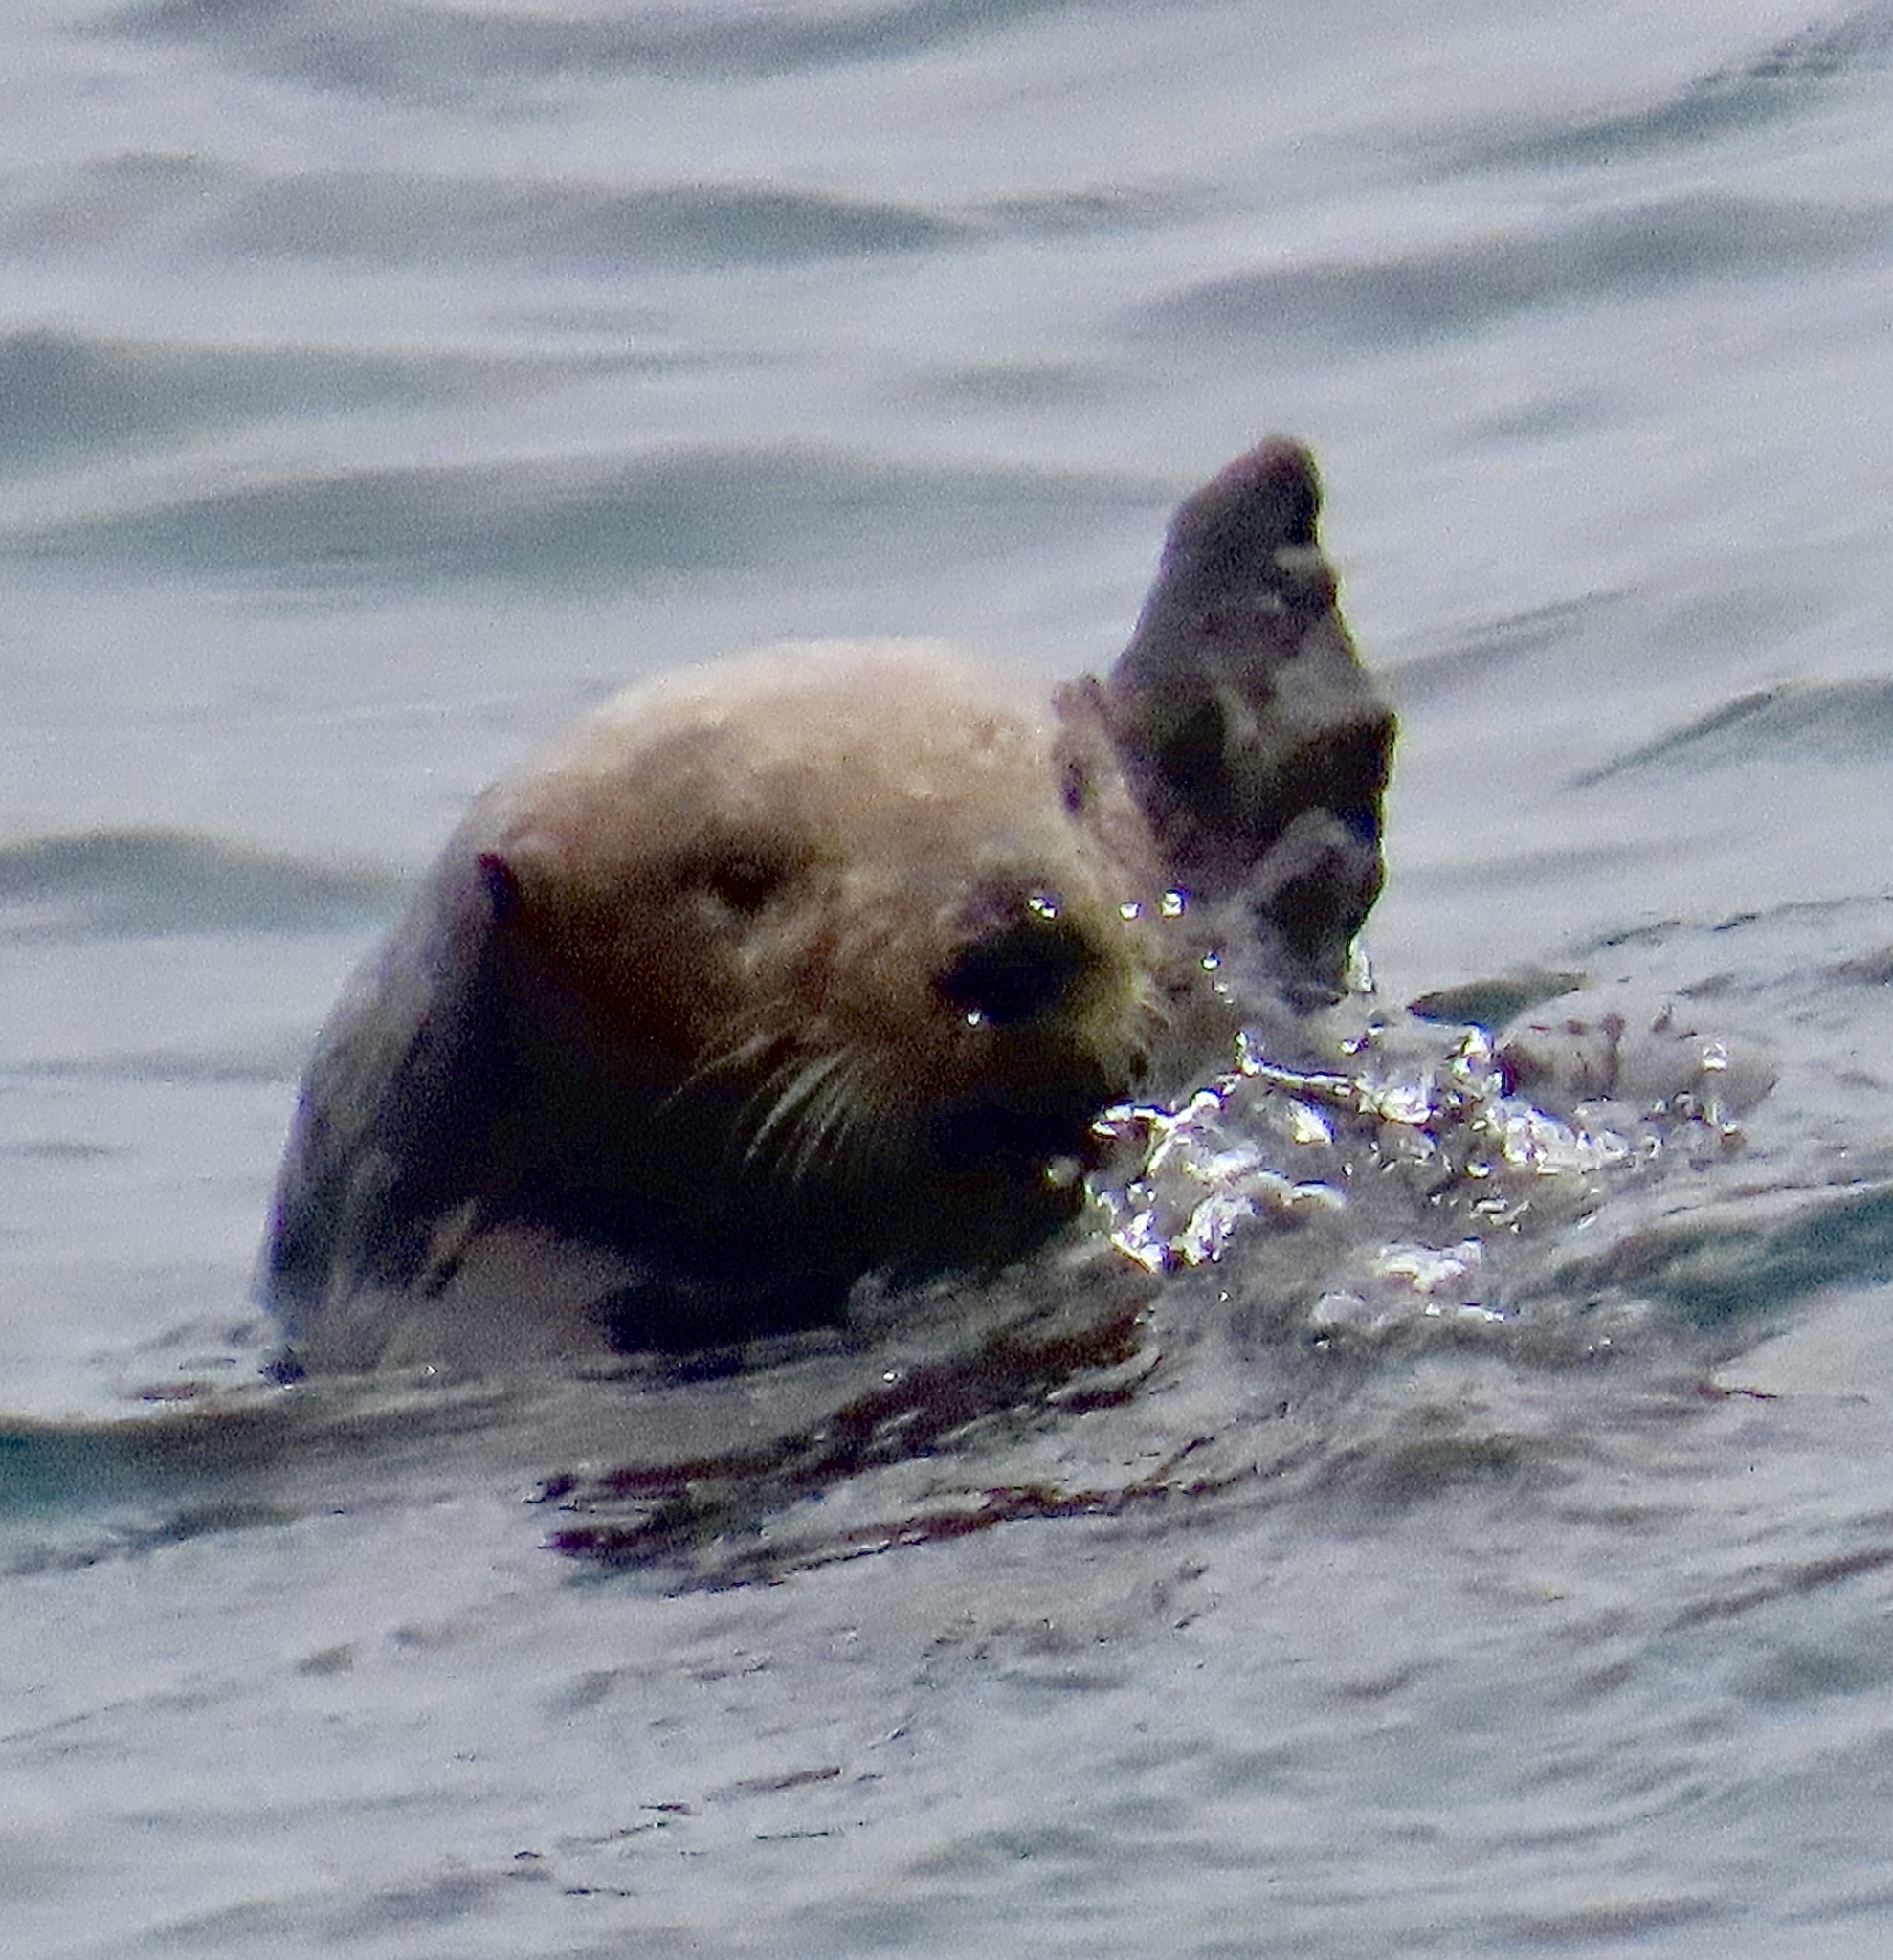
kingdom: Animalia
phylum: Chordata
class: Mammalia
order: Carnivora
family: Mustelidae
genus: Enhydra
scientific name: Enhydra lutris
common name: Sea otter
